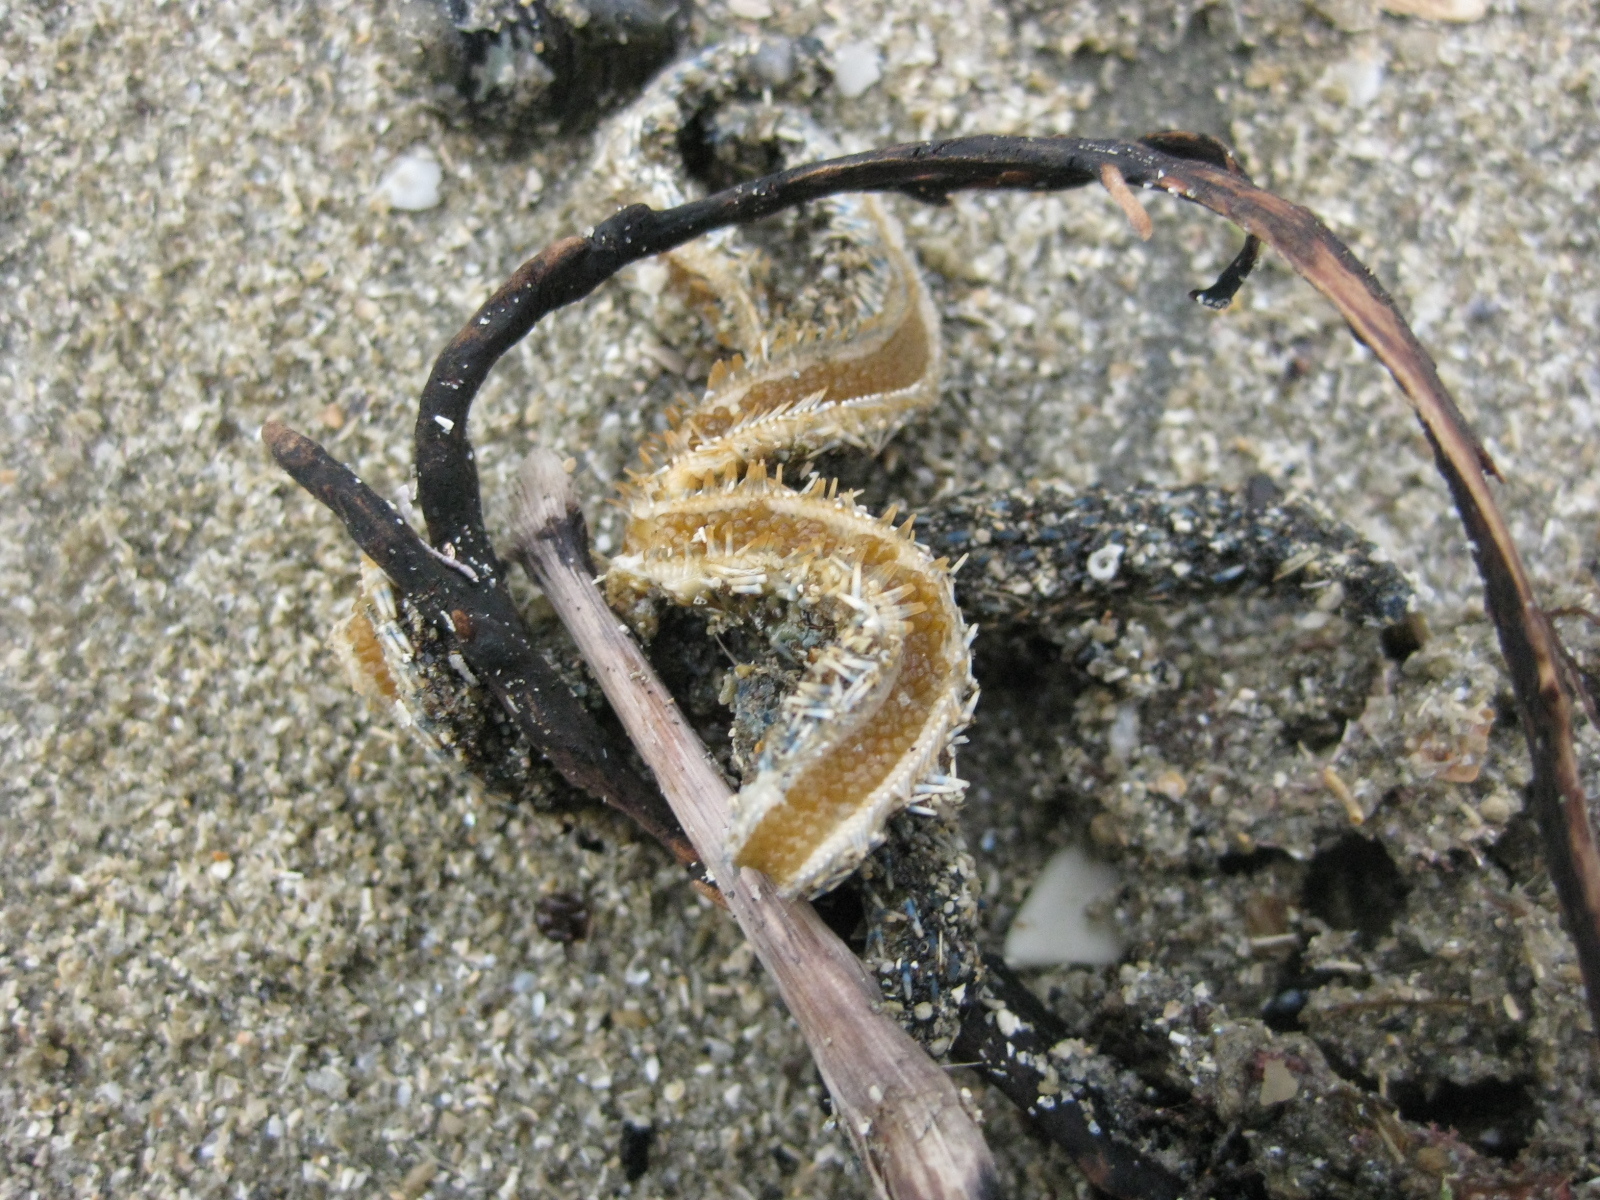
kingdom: Animalia
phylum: Echinodermata
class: Asteroidea
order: Forcipulatida
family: Asteriidae
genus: Coscinasterias
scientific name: Coscinasterias muricata
